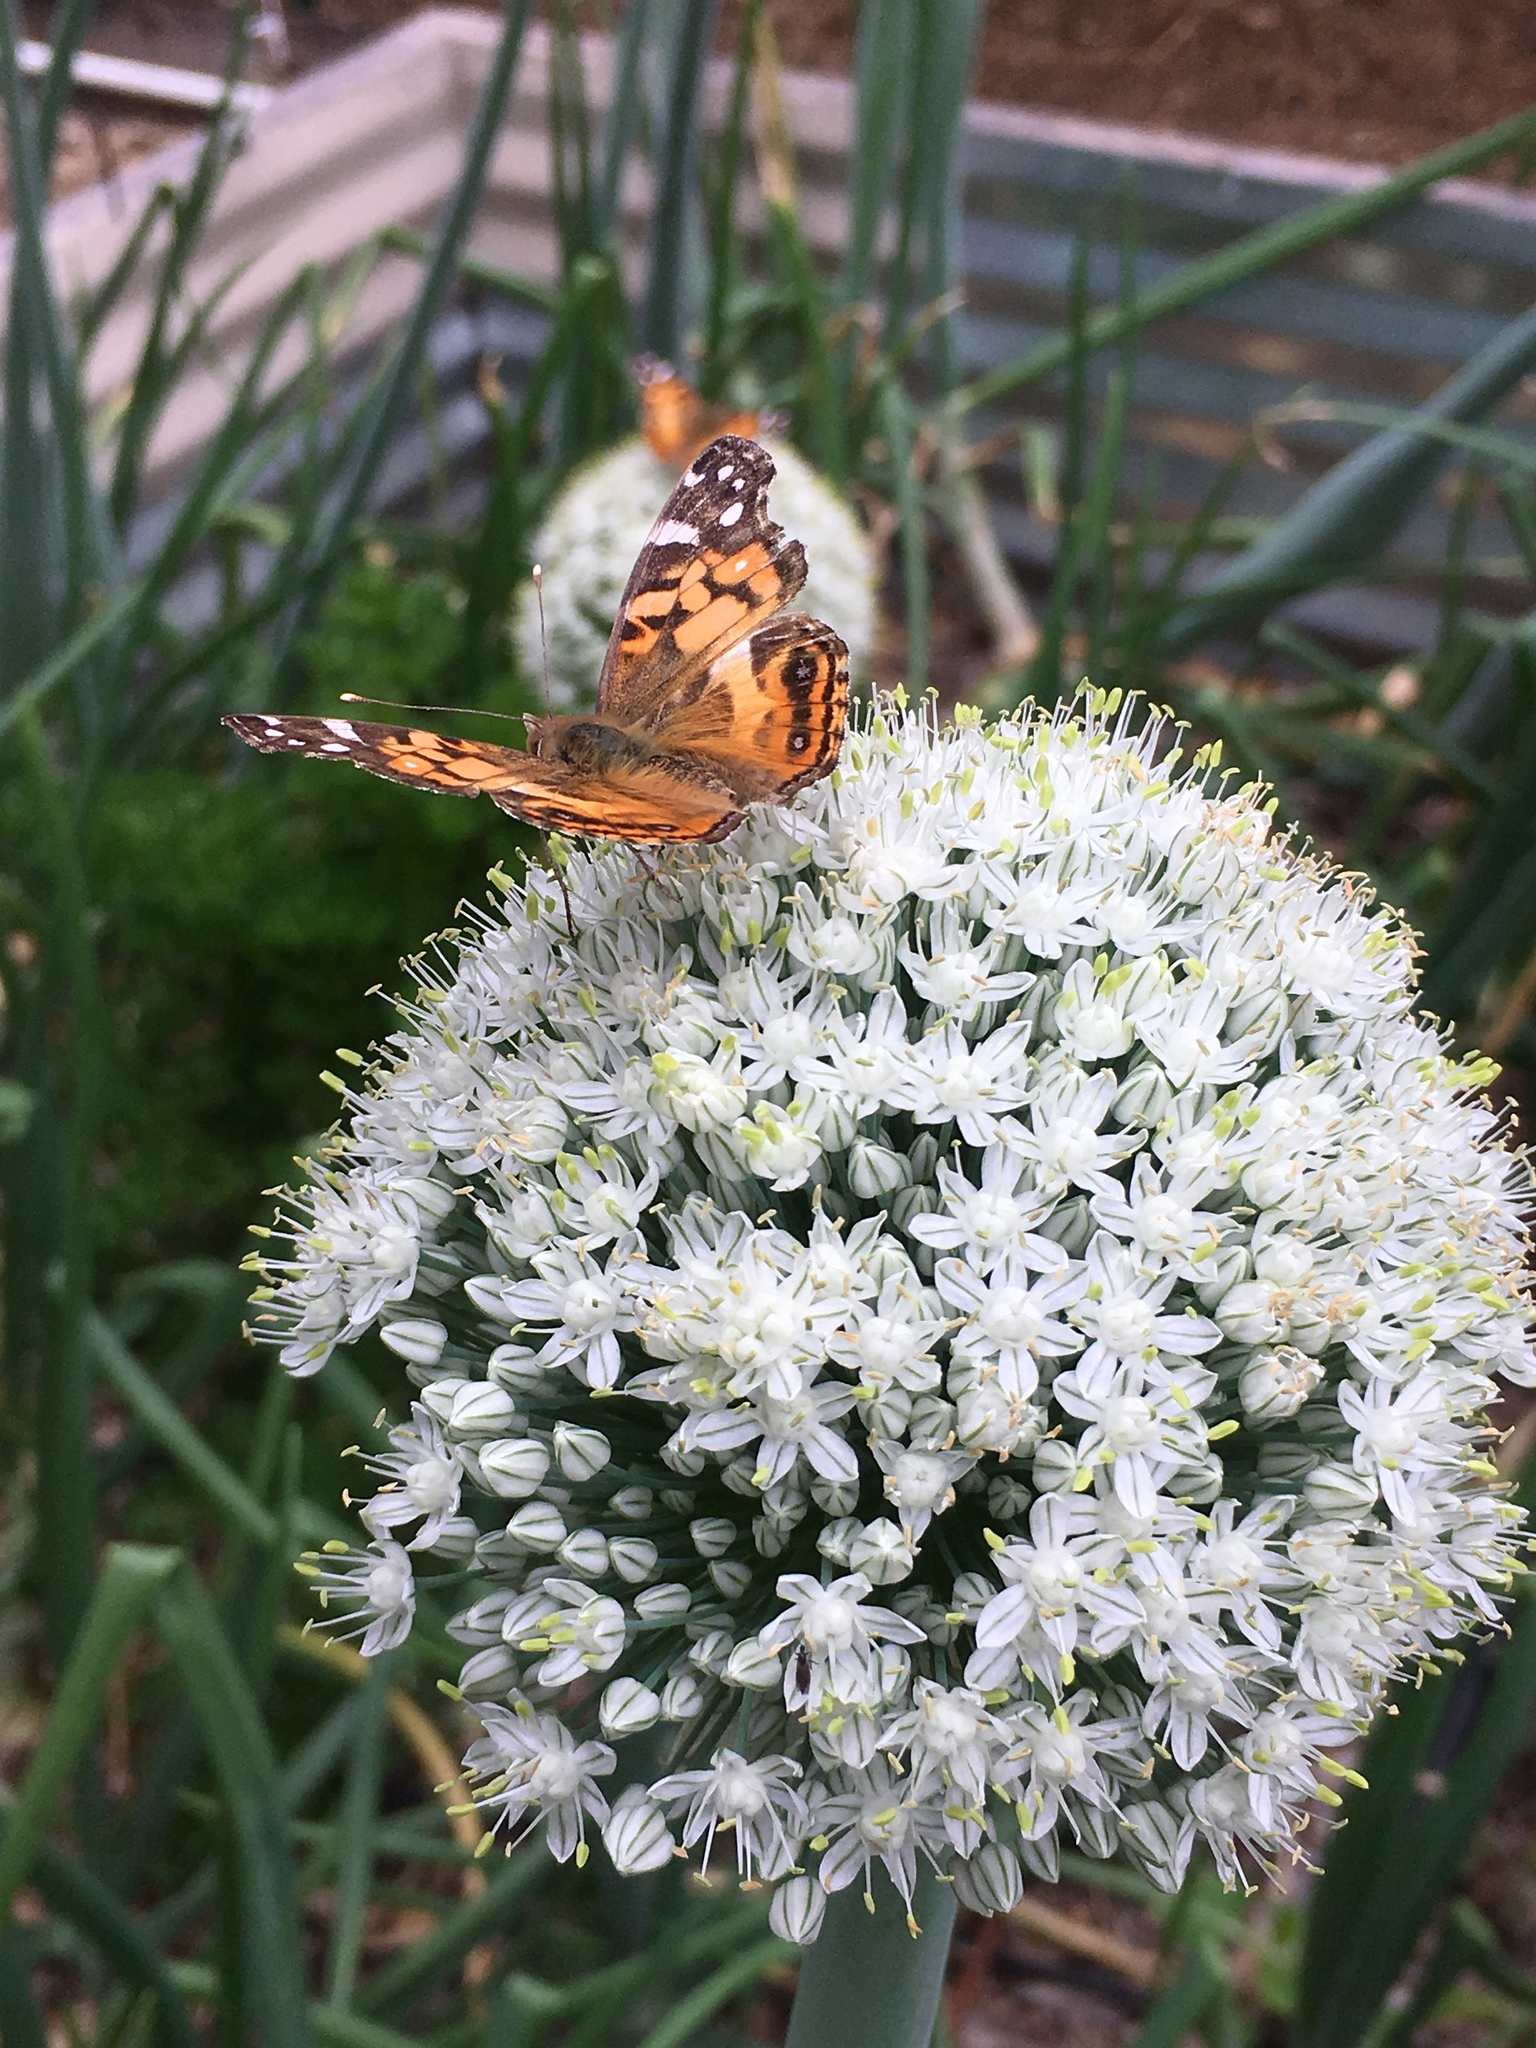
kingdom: Animalia
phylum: Arthropoda
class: Insecta
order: Lepidoptera
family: Nymphalidae
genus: Vanessa
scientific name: Vanessa virginiensis
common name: American lady
